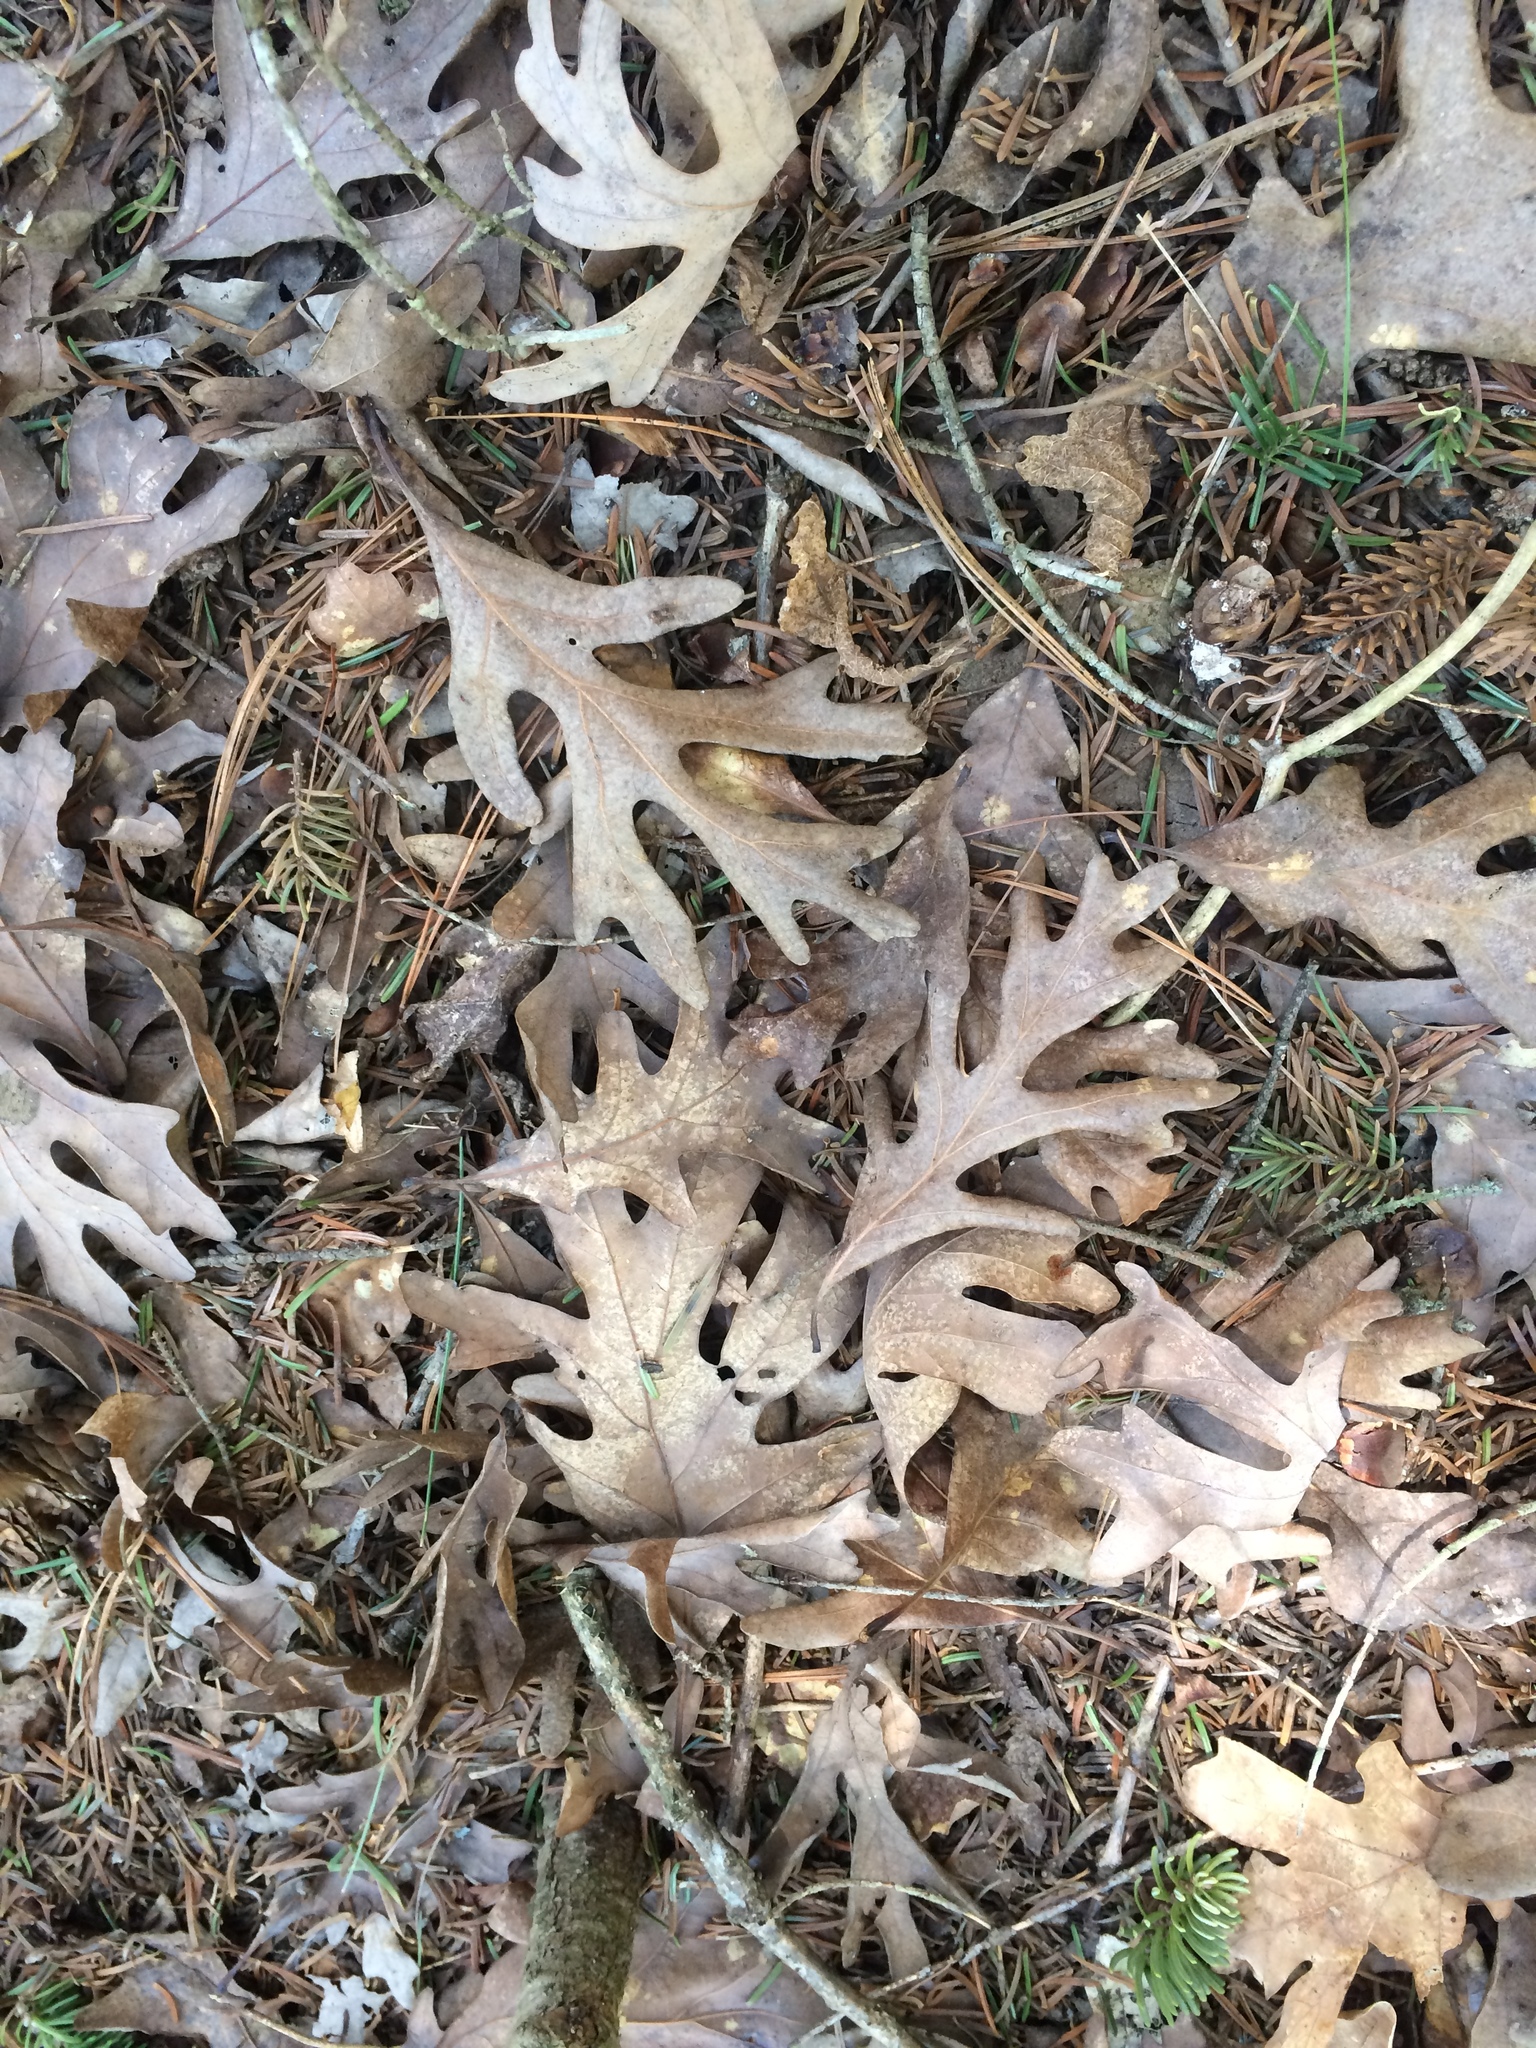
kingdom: Plantae
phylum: Tracheophyta
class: Magnoliopsida
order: Fagales
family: Fagaceae
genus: Quercus
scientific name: Quercus alba
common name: White oak
